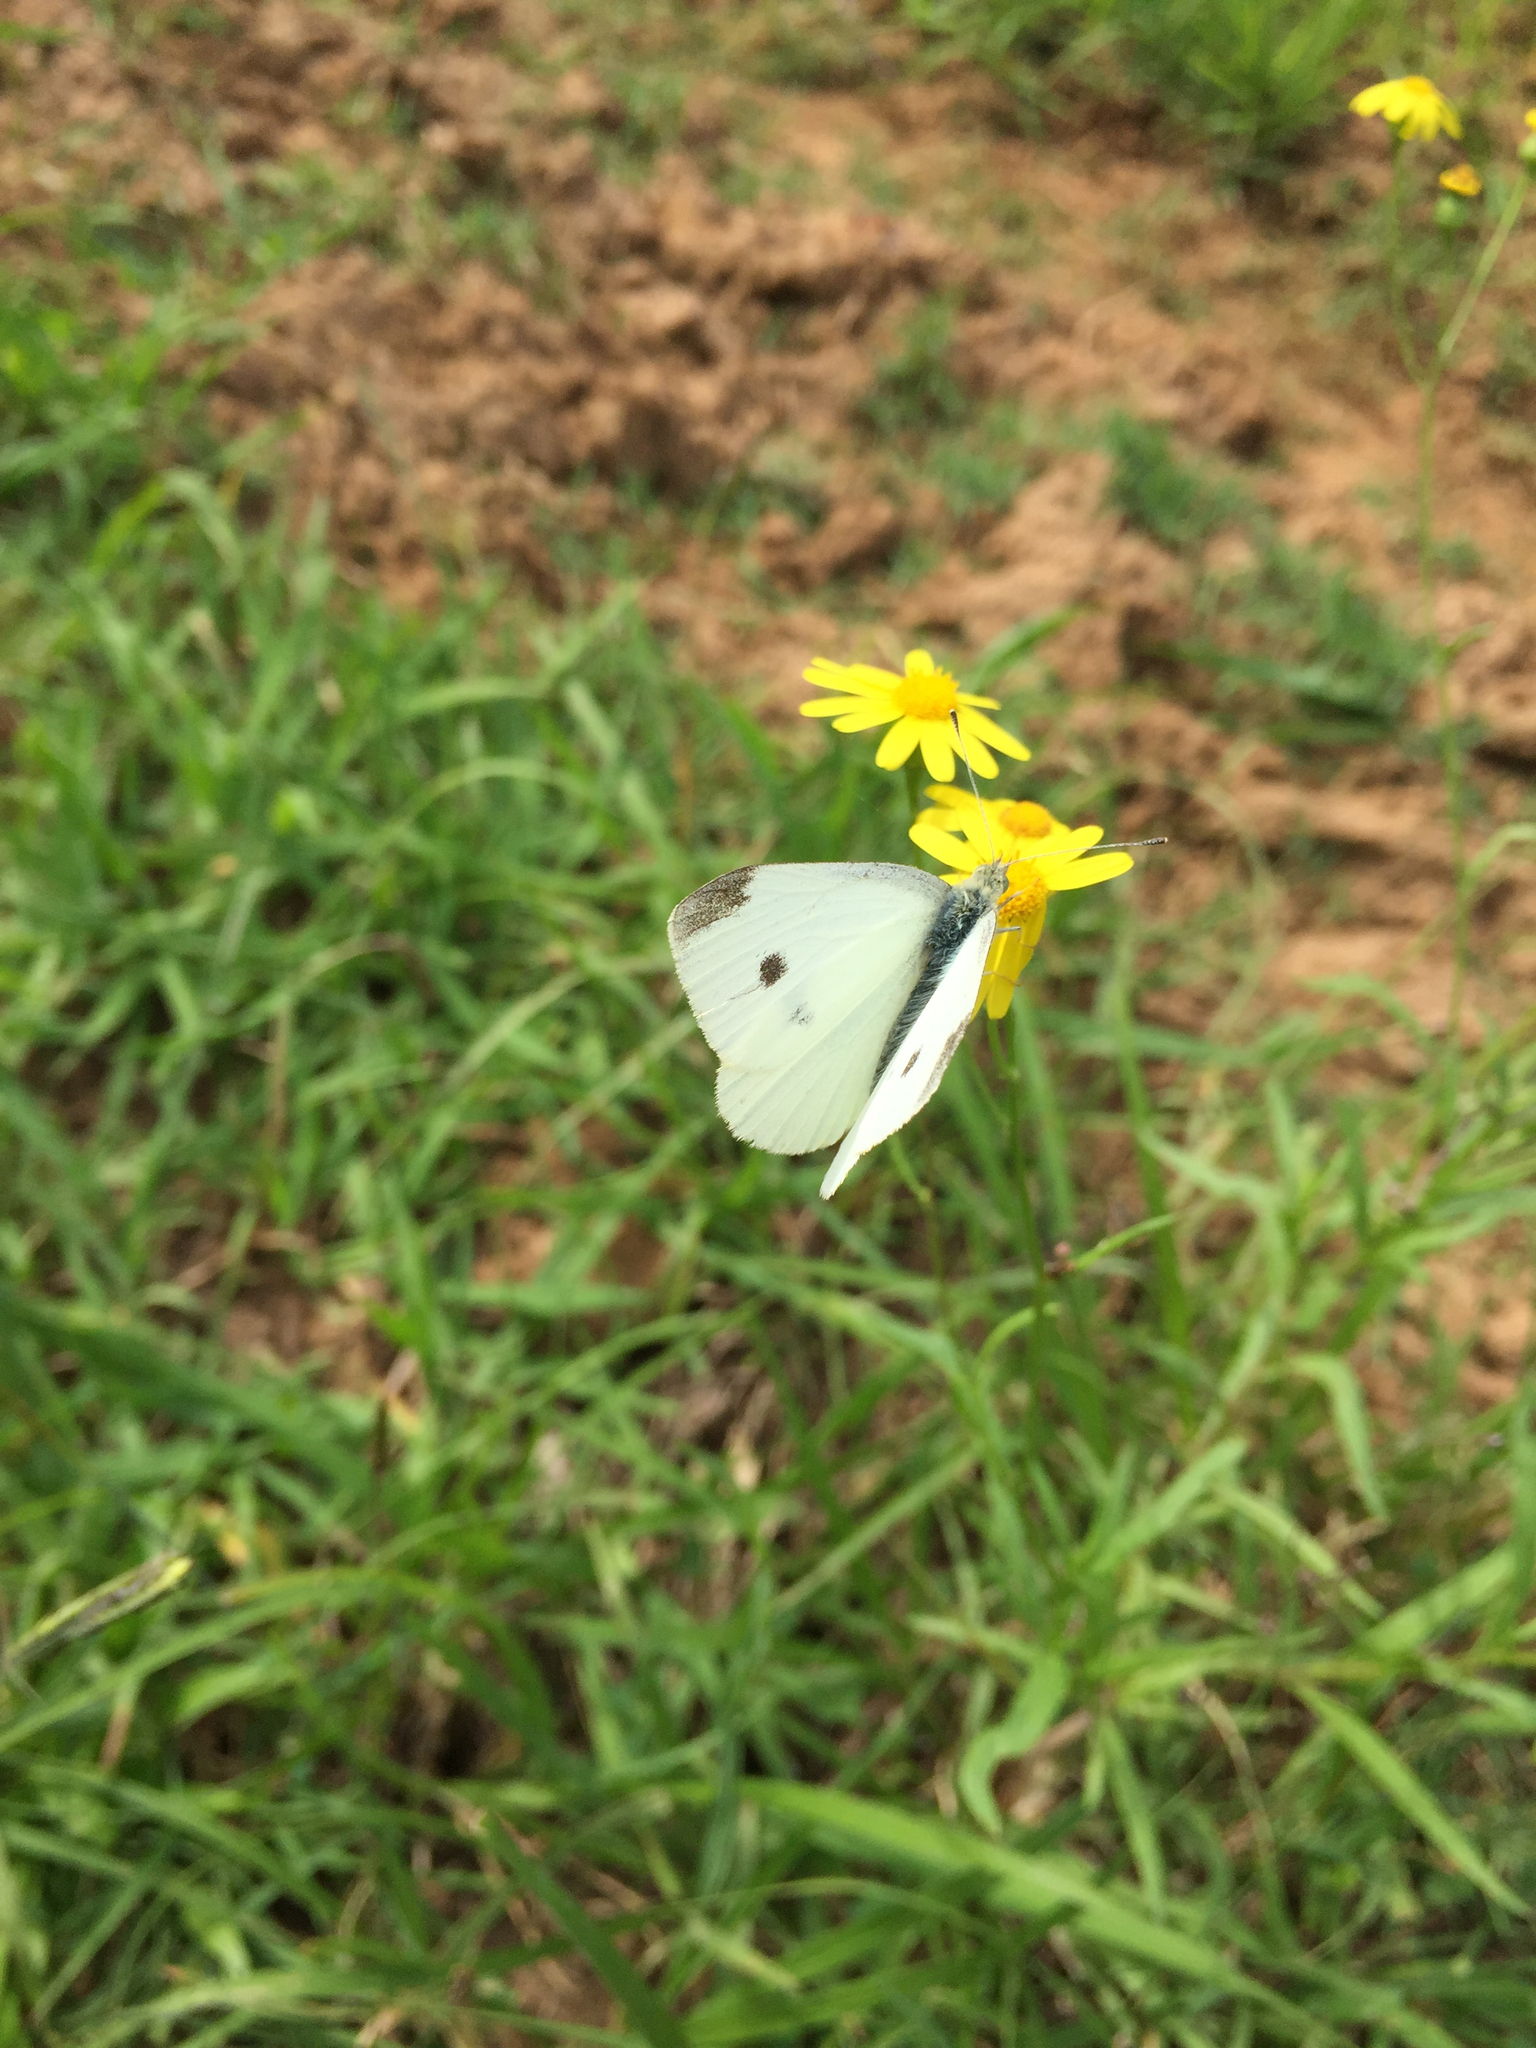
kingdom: Animalia
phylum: Arthropoda
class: Insecta
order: Lepidoptera
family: Pieridae
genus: Pieris
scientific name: Pieris rapae
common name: Small white
